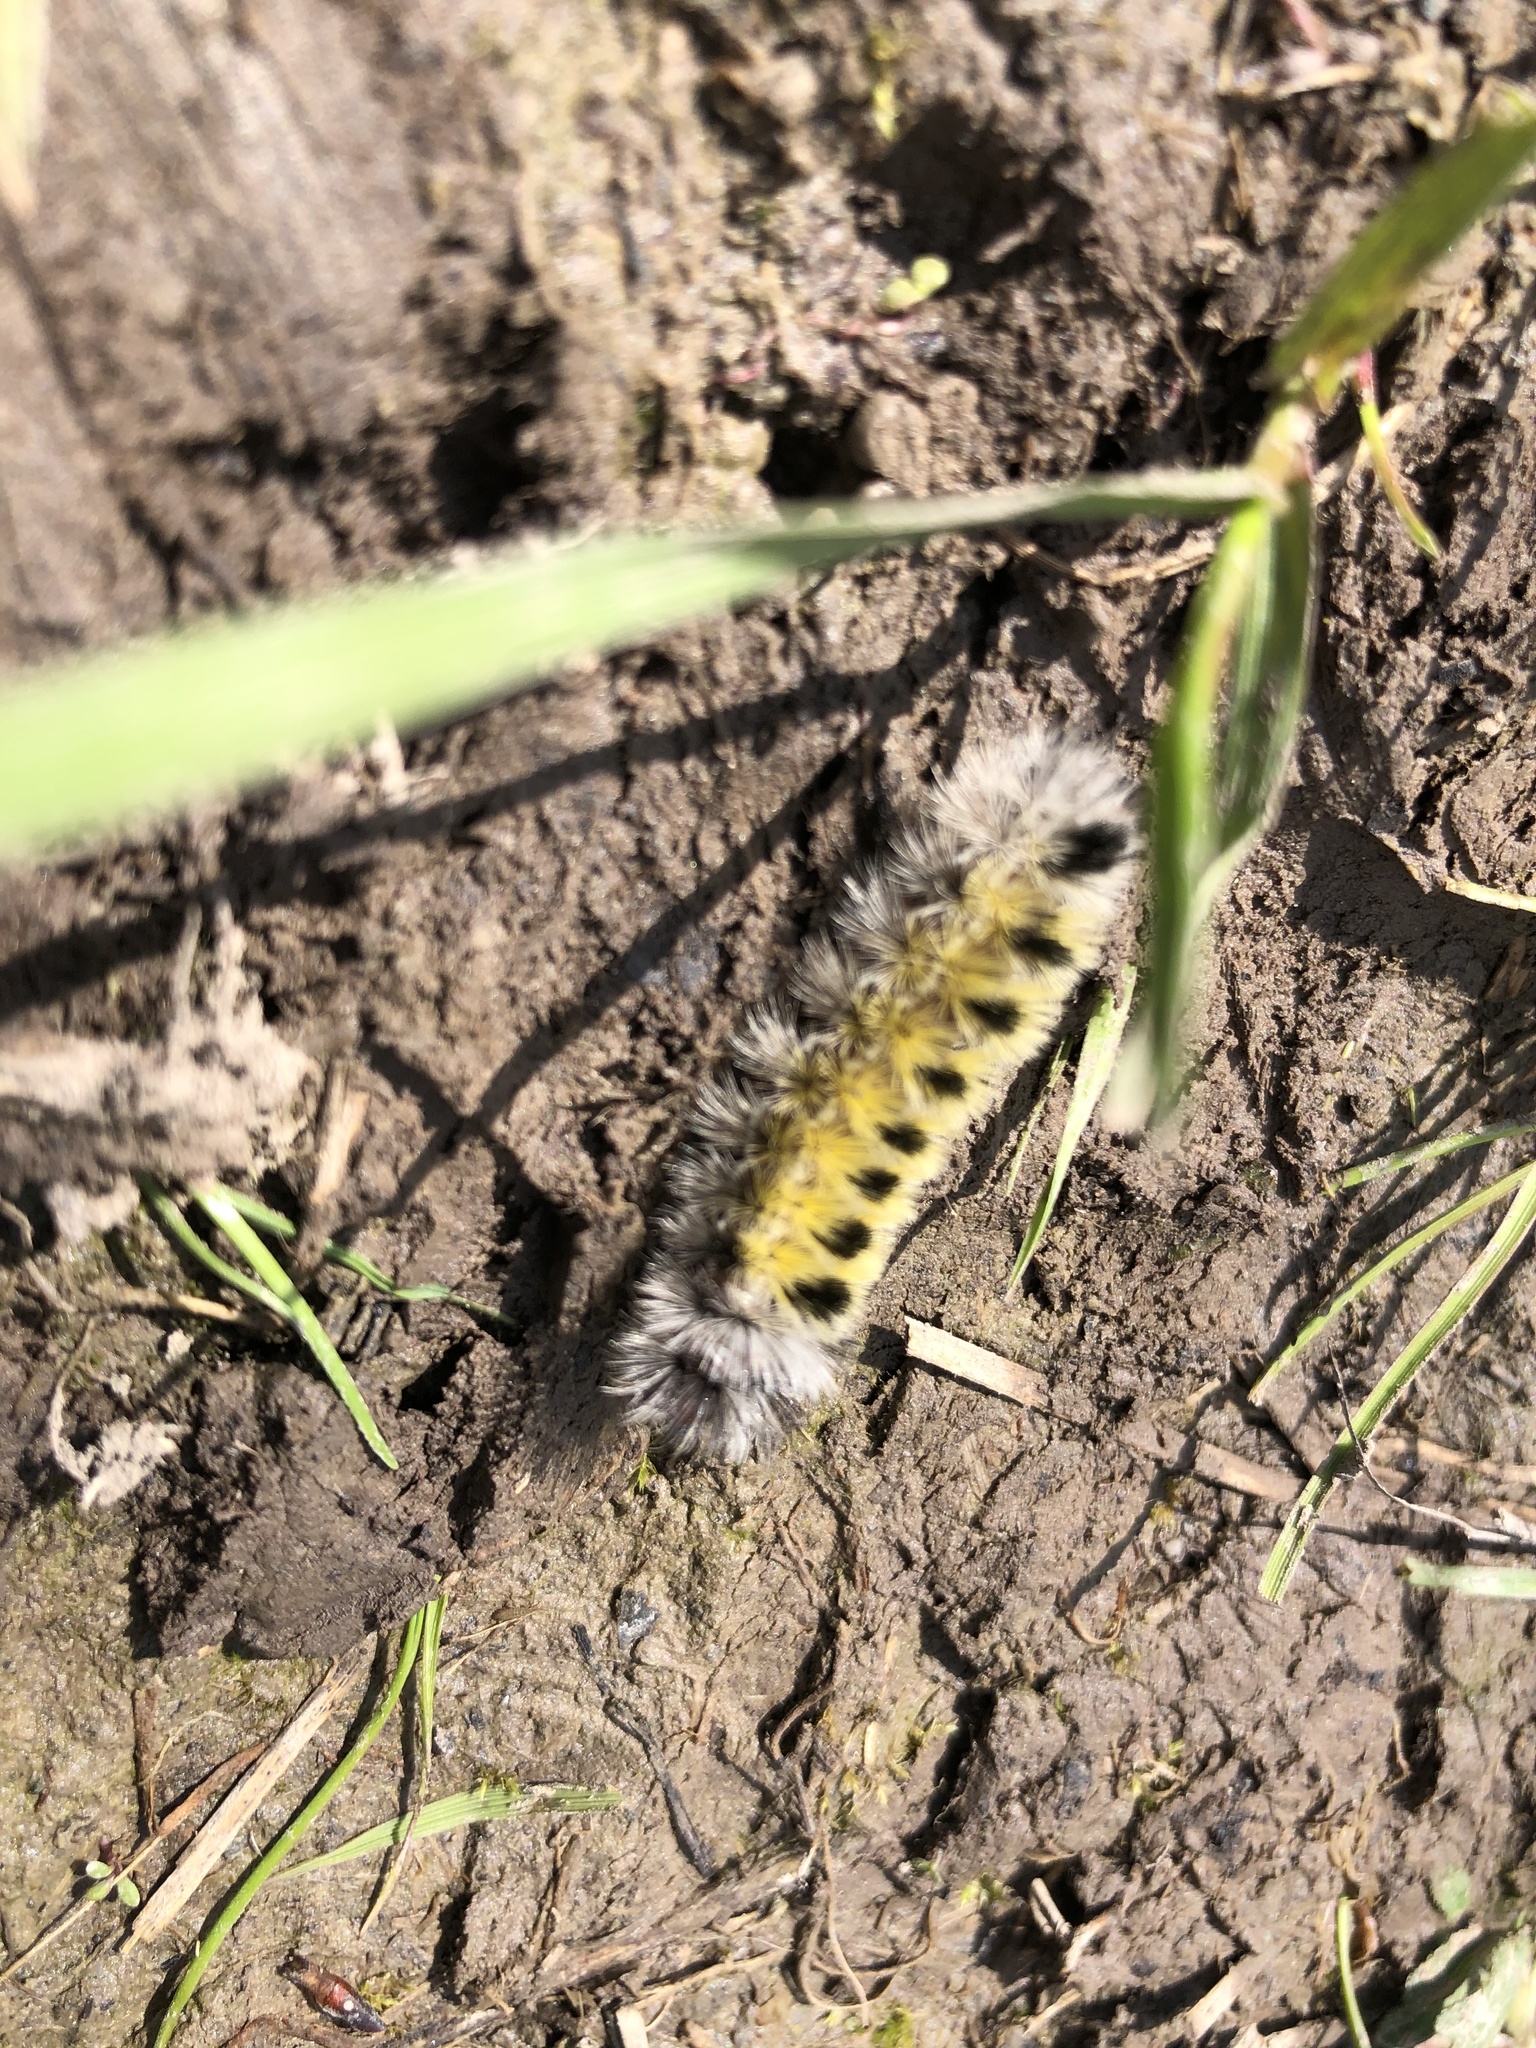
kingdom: Animalia
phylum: Arthropoda
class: Insecta
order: Lepidoptera
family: Erebidae
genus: Ctenucha
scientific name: Ctenucha virginica
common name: Virginia ctenucha moth
